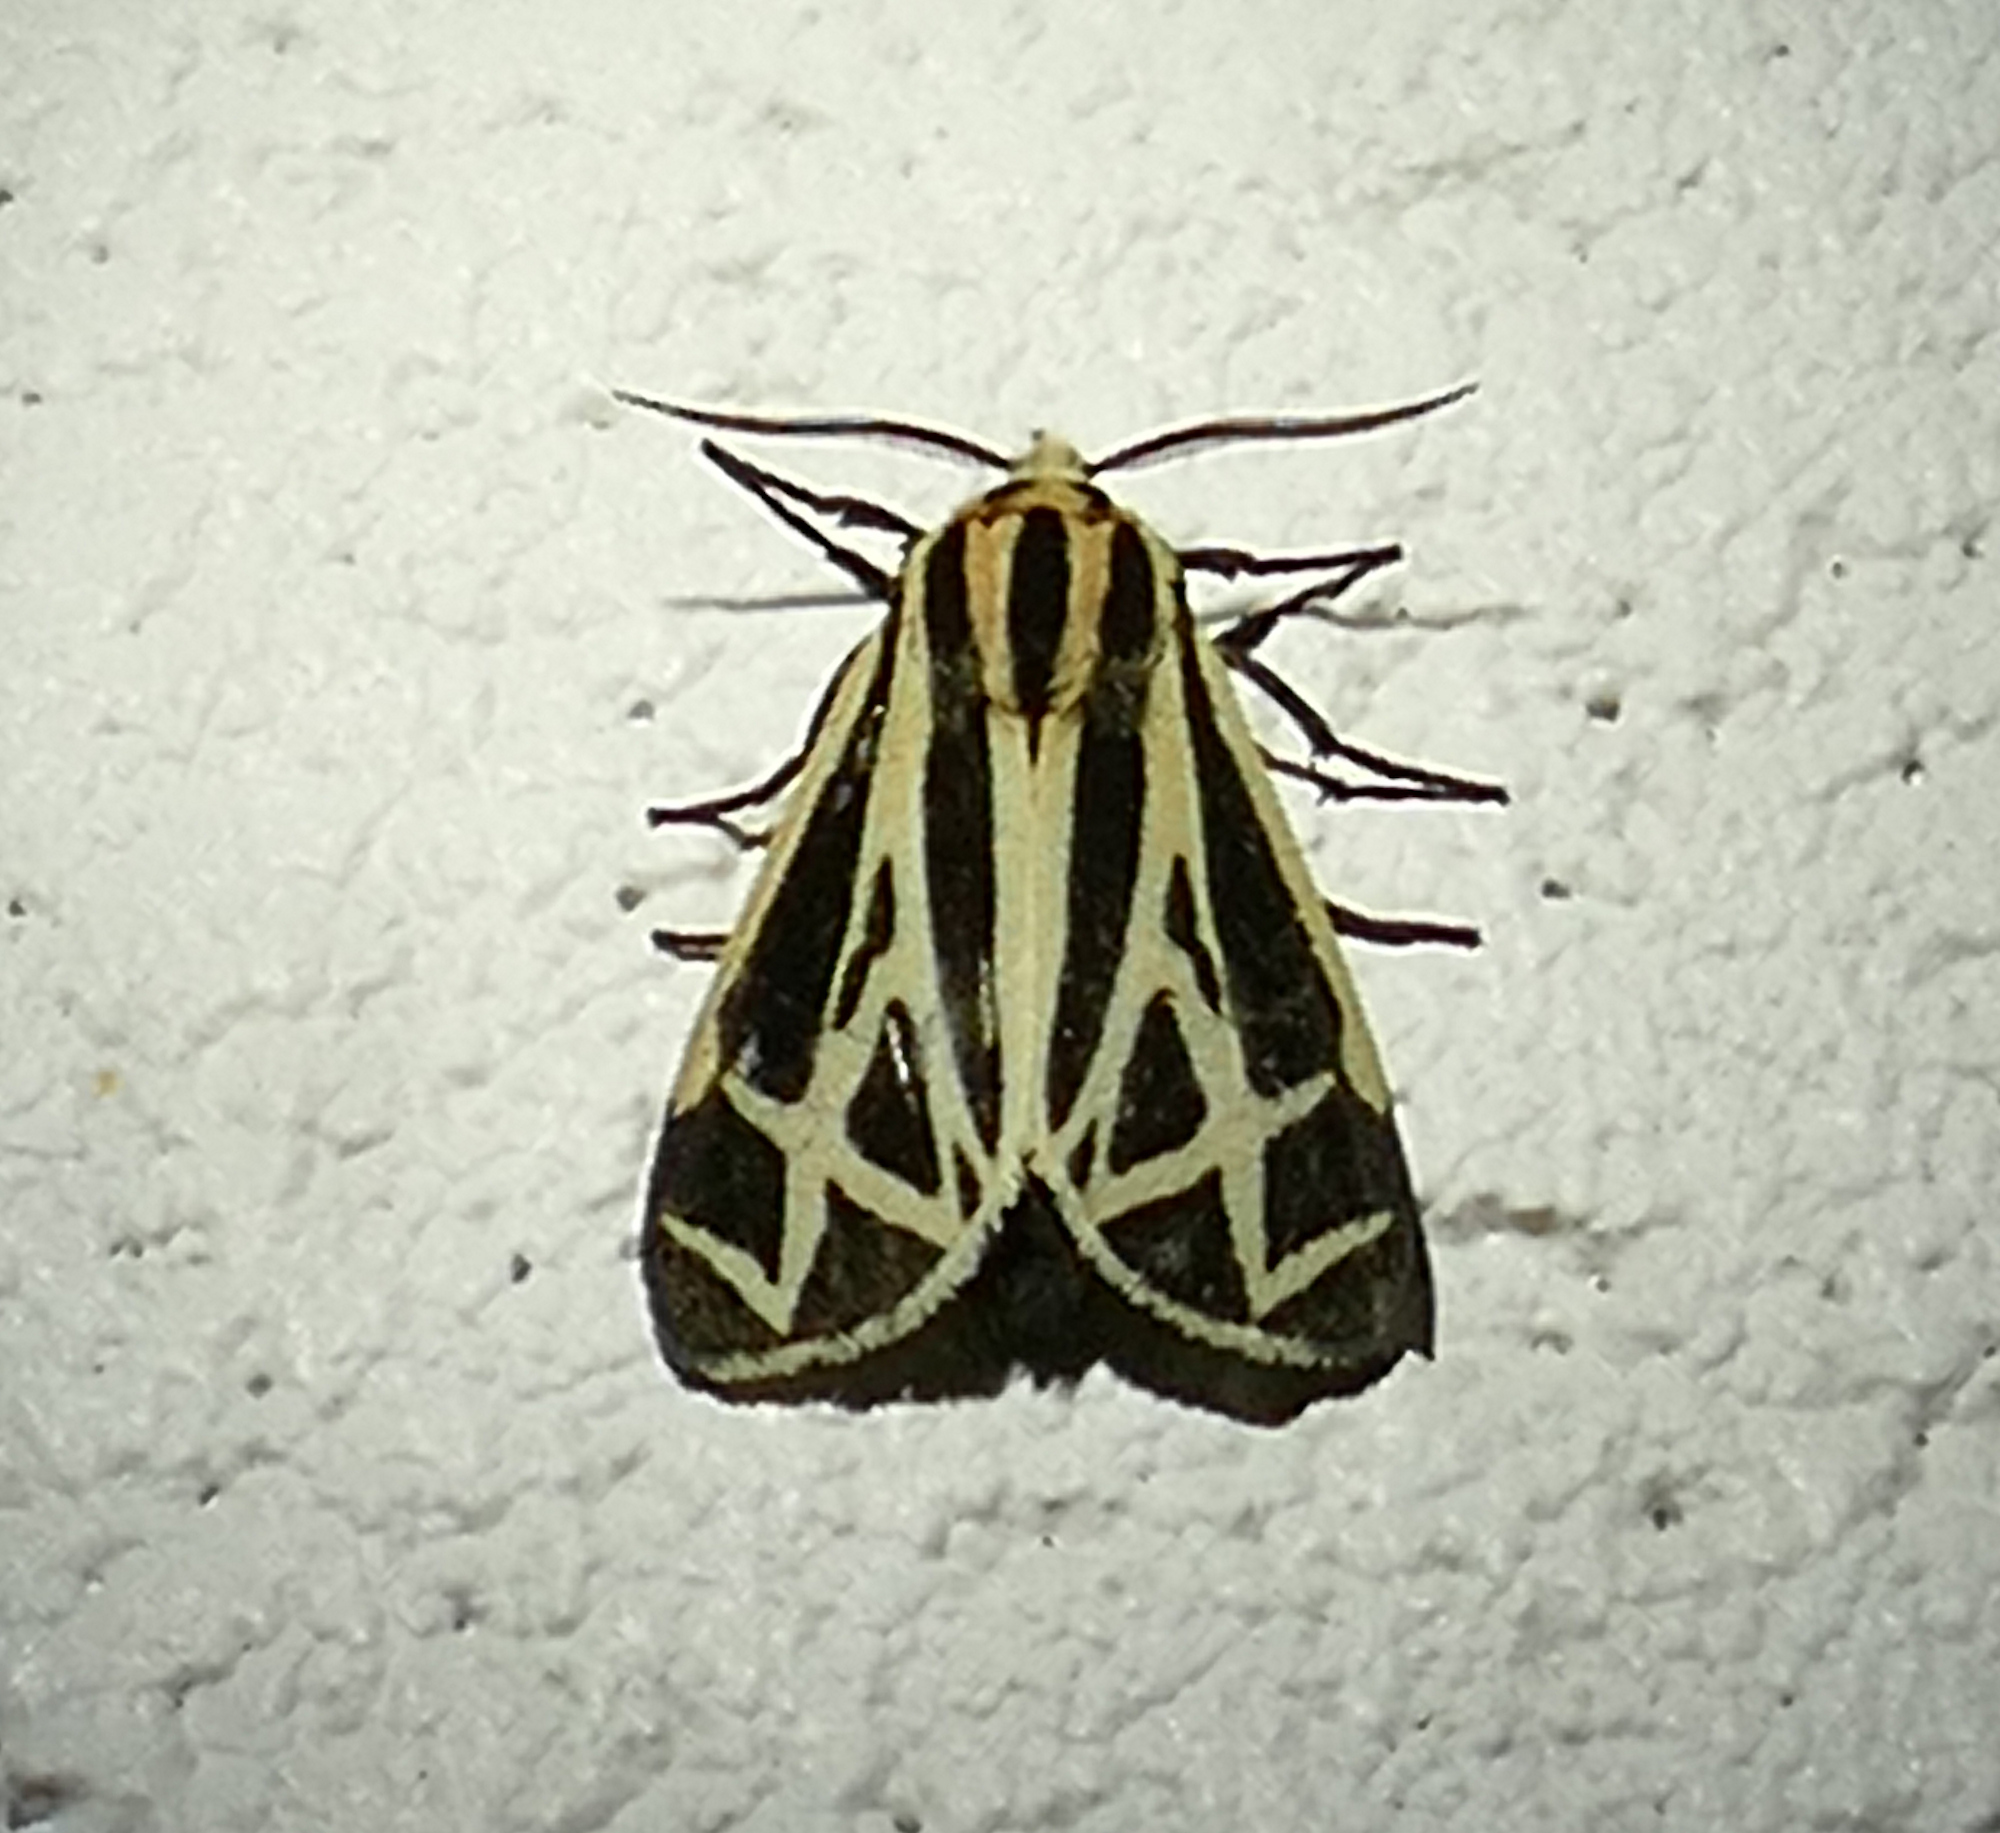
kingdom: Animalia
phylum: Arthropoda
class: Insecta
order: Lepidoptera
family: Erebidae
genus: Apantesis
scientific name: Apantesis phalerata
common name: Harnessed tiger moth
